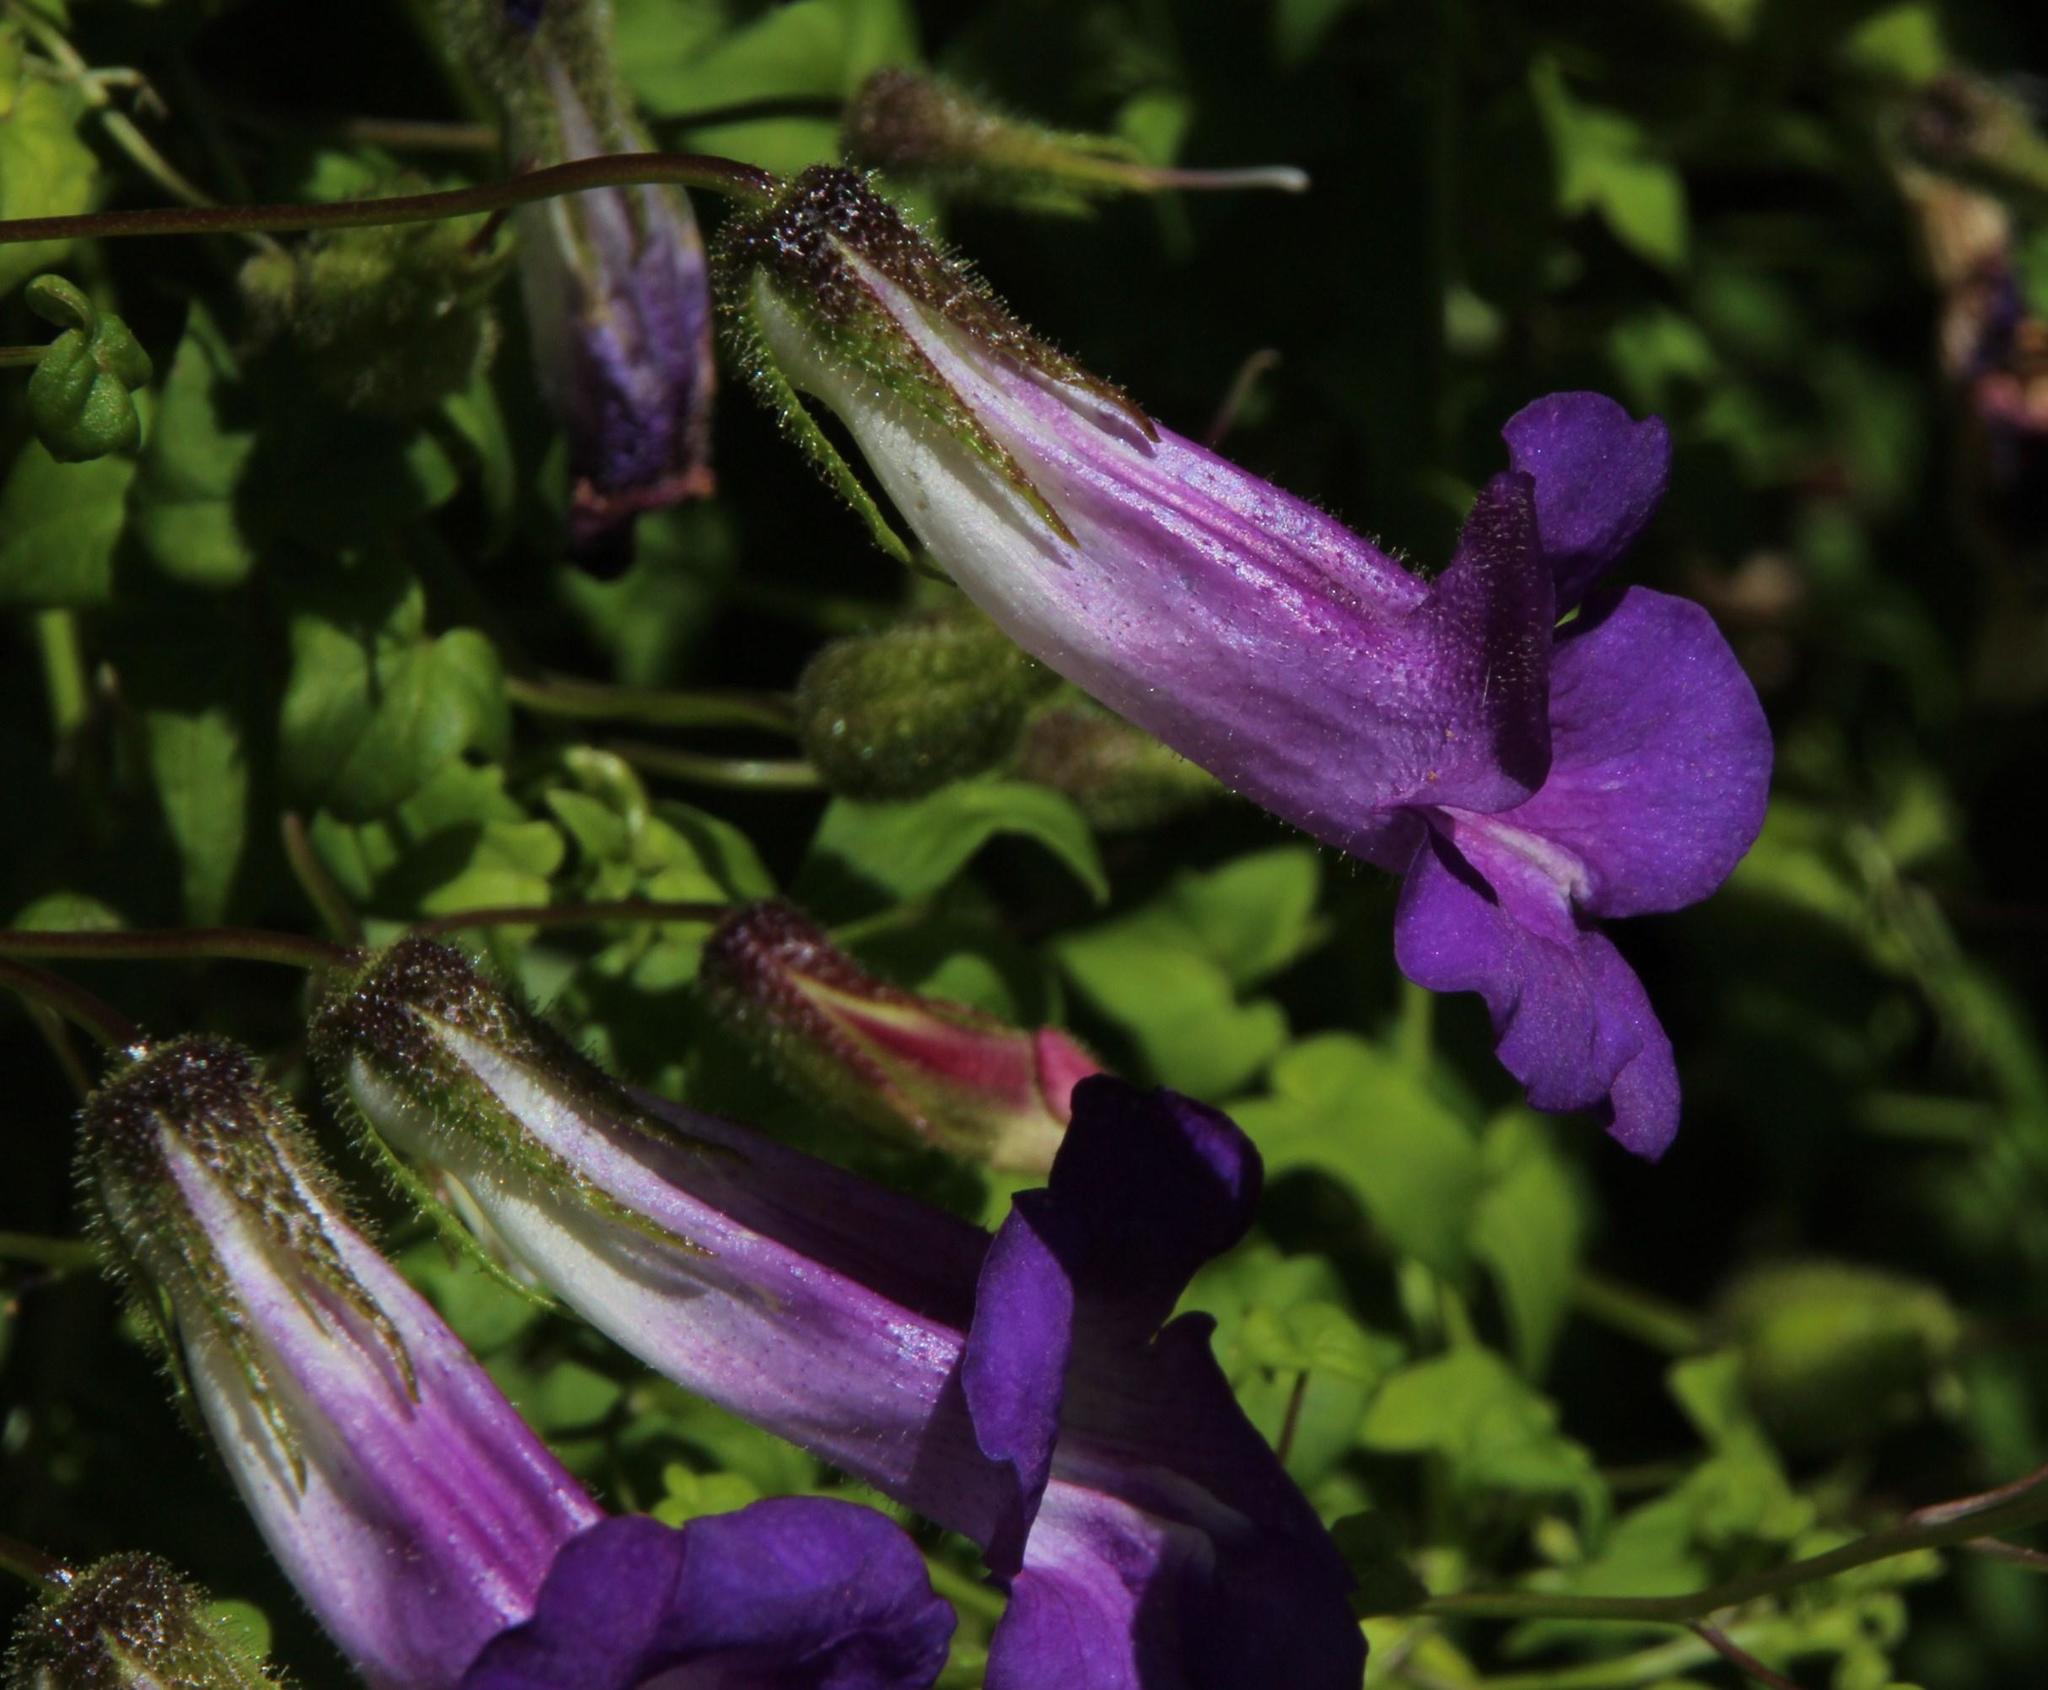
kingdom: Plantae
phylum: Tracheophyta
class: Magnoliopsida
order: Lamiales
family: Plantaginaceae
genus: Maurandya
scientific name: Maurandya barclayana
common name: Mexican viper
